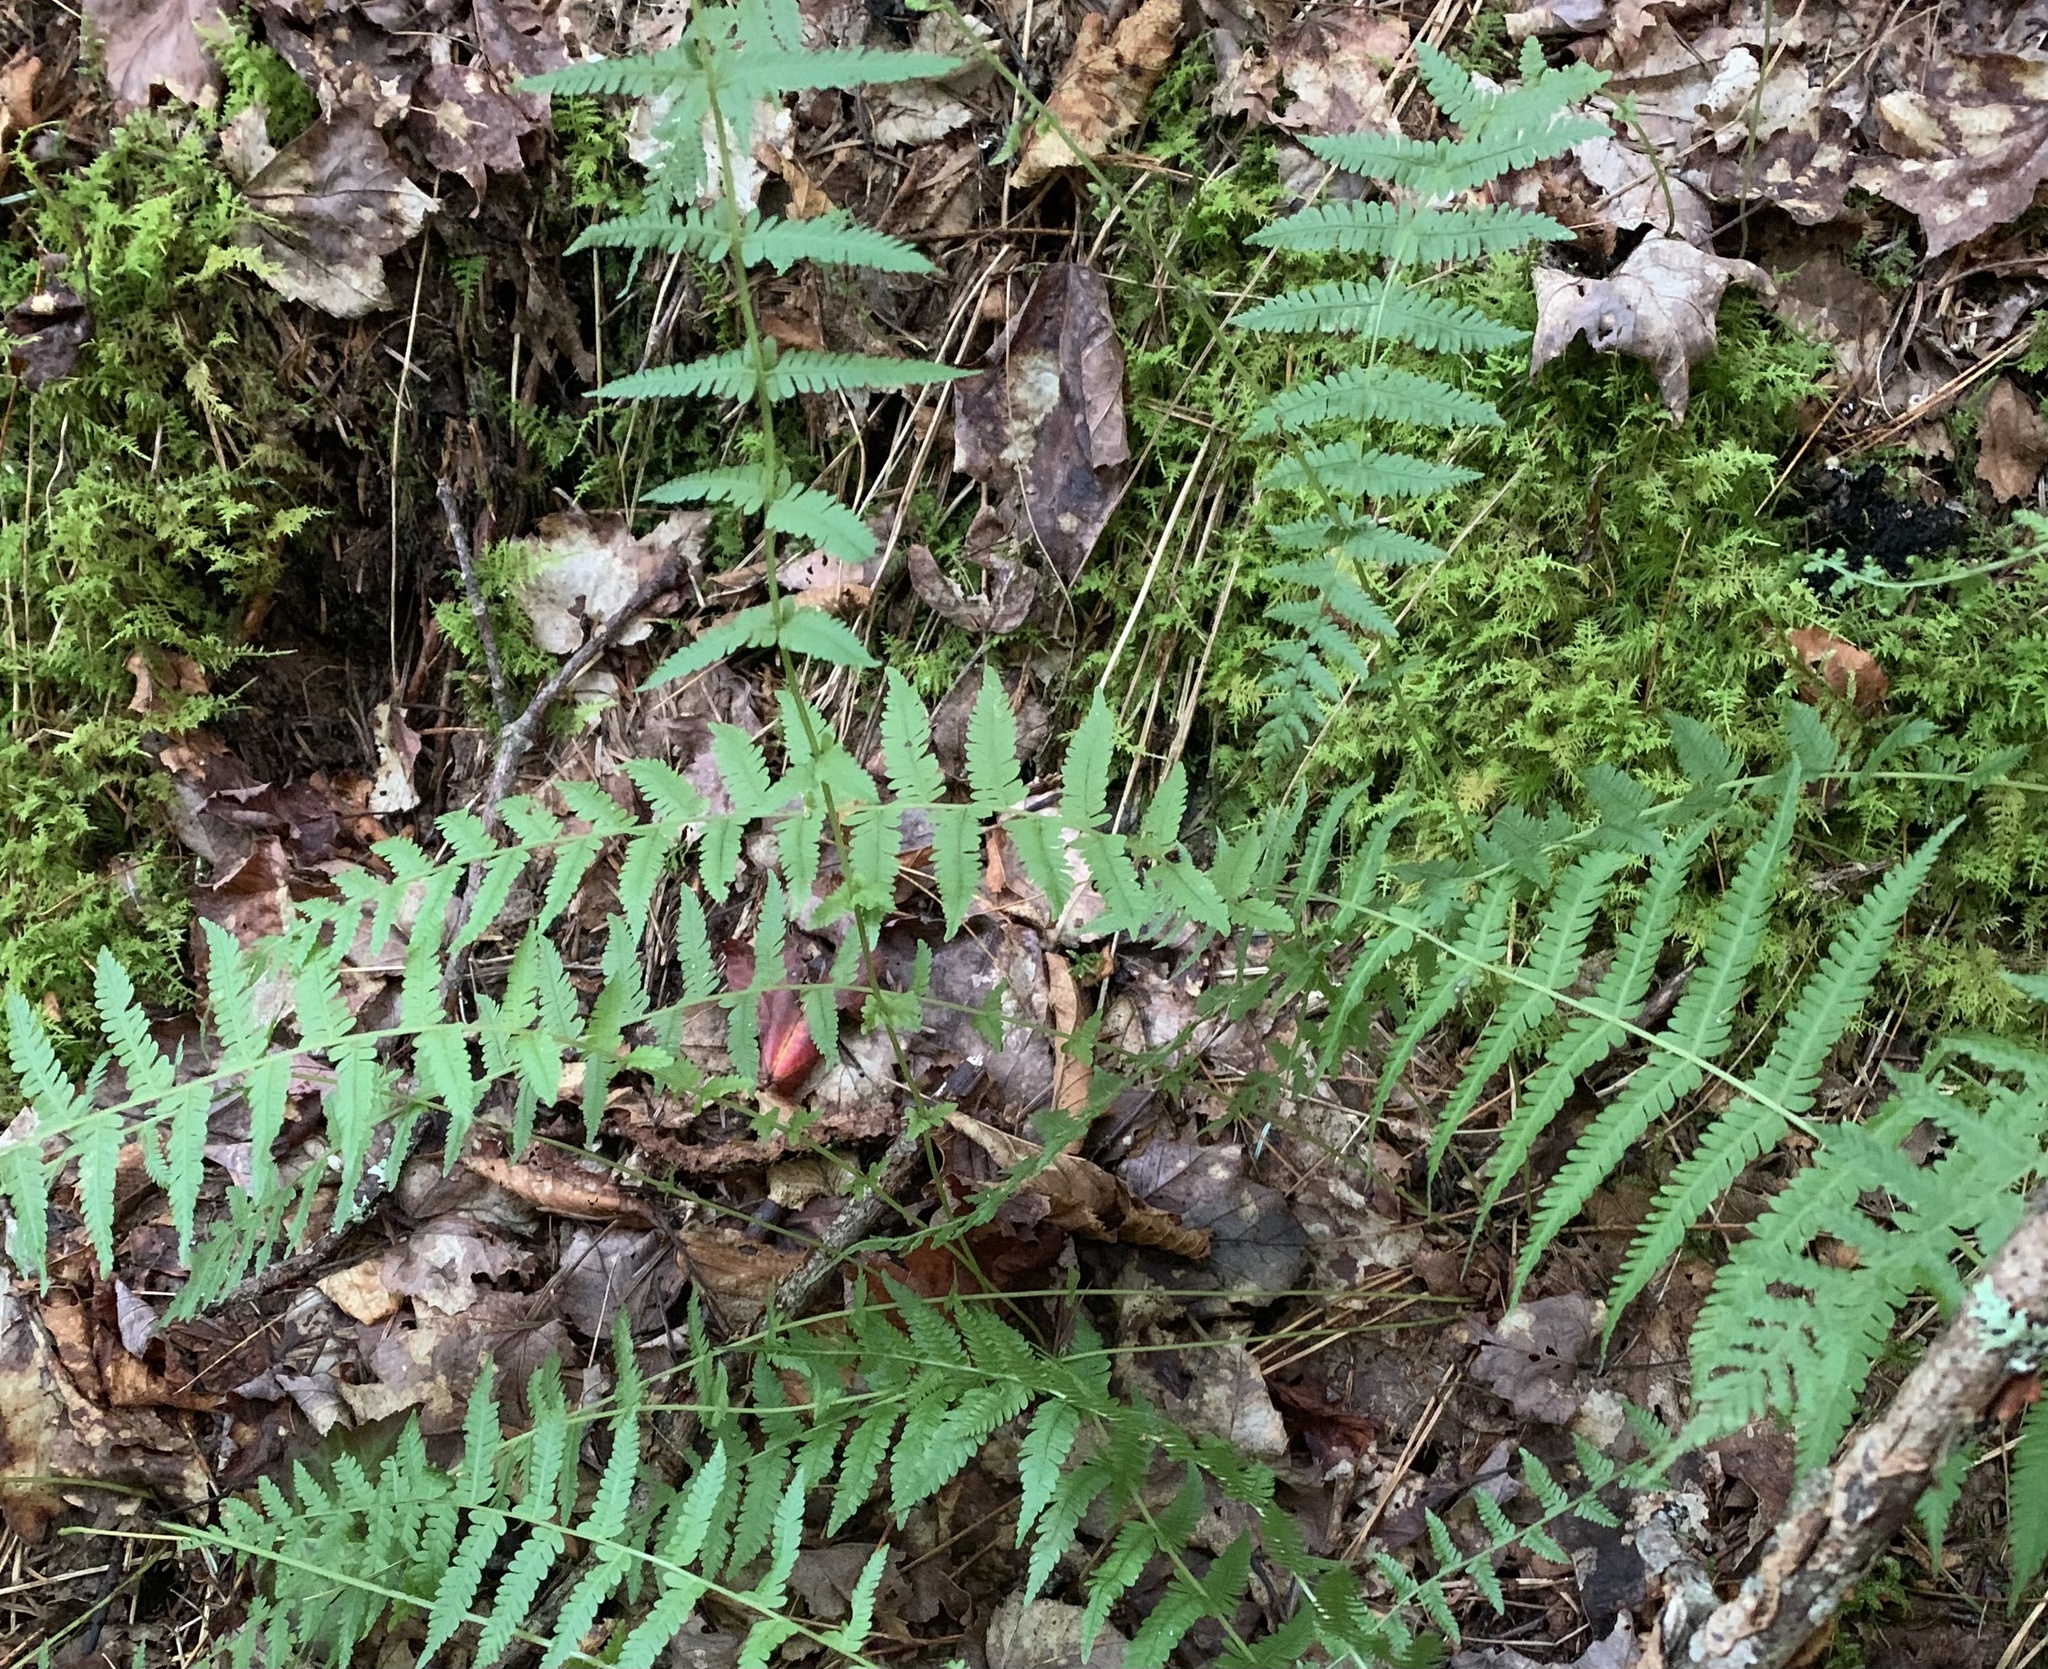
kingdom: Plantae
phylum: Tracheophyta
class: Polypodiopsida
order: Polypodiales
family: Thelypteridaceae
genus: Amauropelta
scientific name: Amauropelta noveboracensis
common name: New york fern
